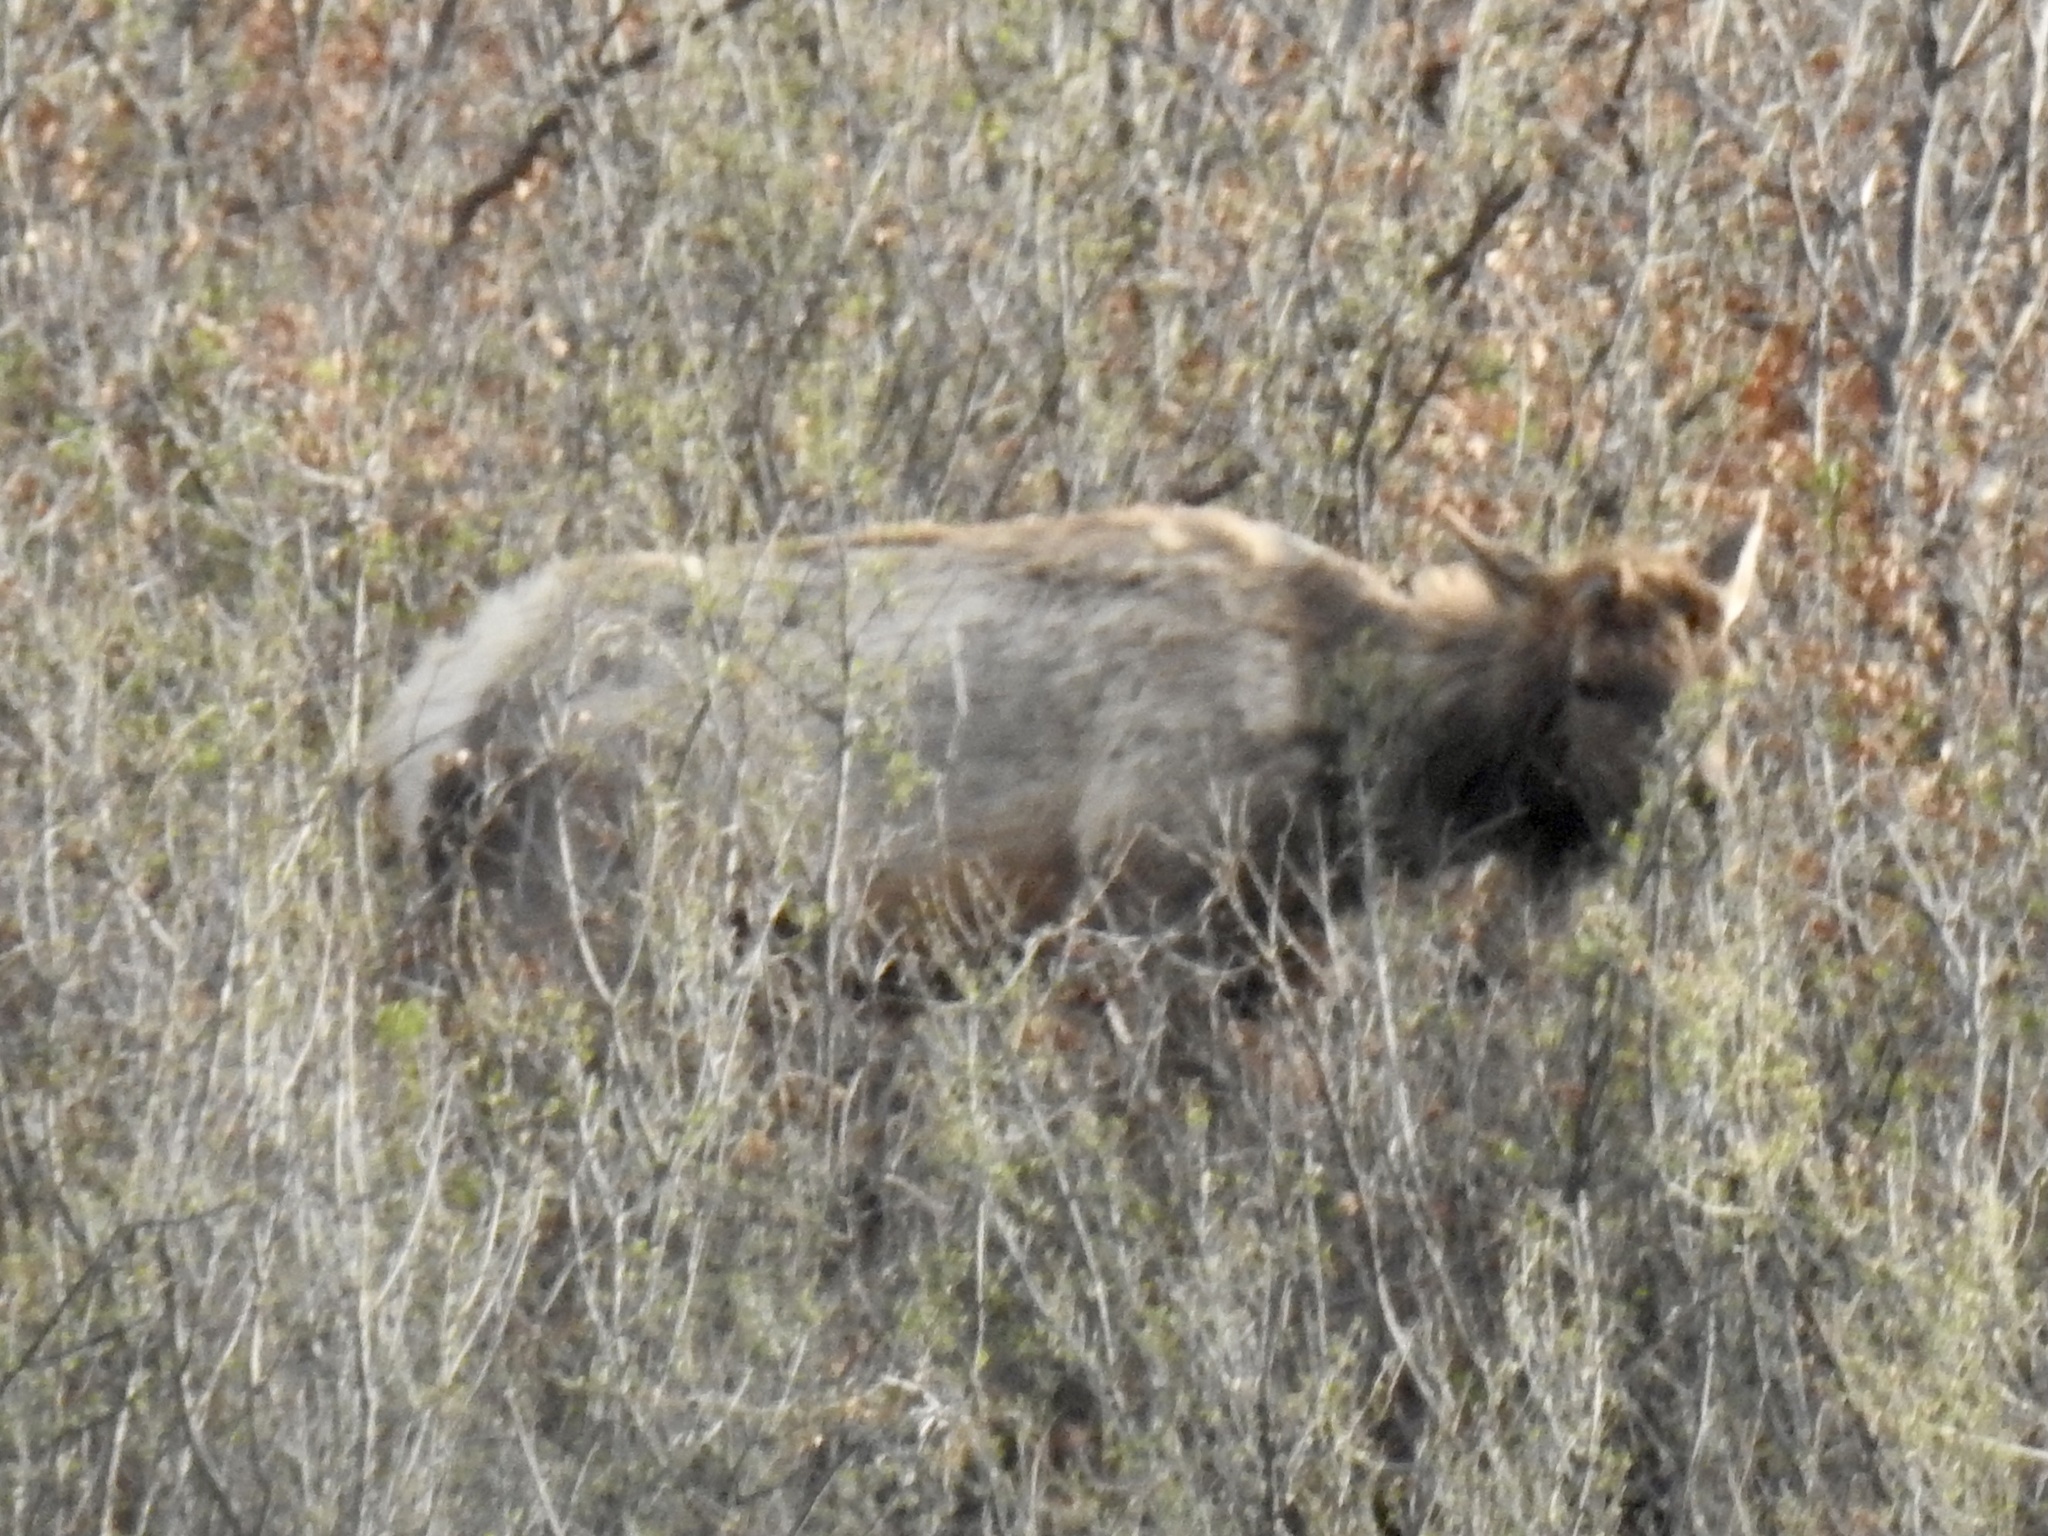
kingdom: Animalia
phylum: Chordata
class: Mammalia
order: Artiodactyla
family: Cervidae
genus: Cervus
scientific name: Cervus elaphus
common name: Red deer
